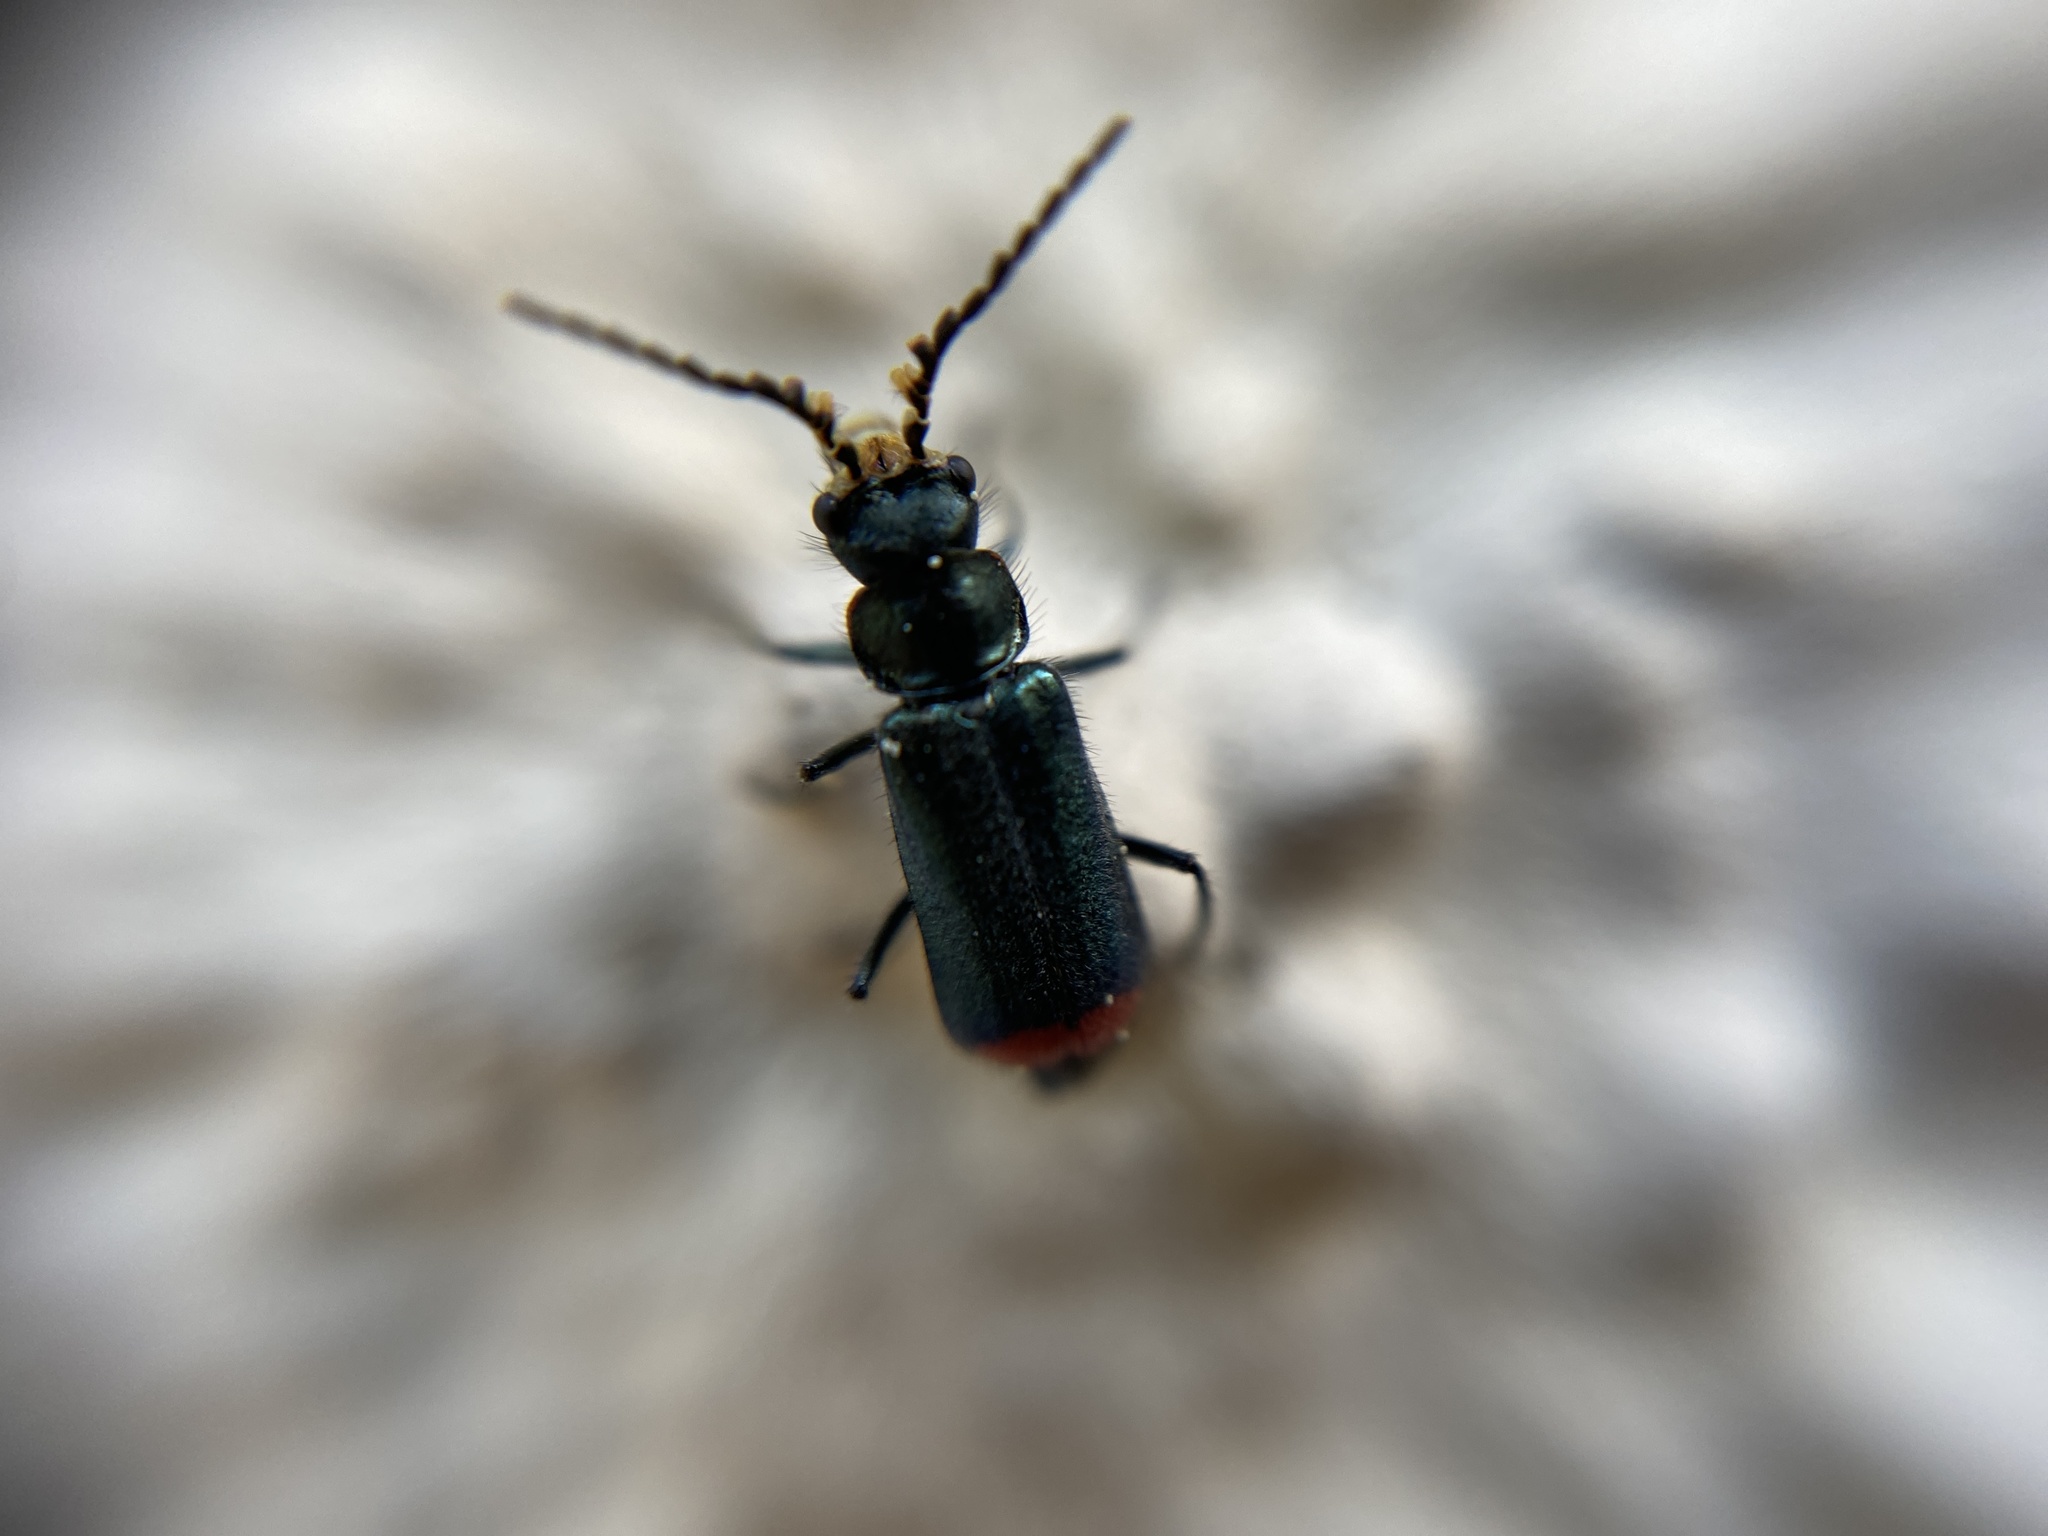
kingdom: Animalia
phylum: Arthropoda
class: Insecta
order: Coleoptera
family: Melyridae
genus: Malachius
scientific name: Malachius bipustulatus
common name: Malachite beetle
